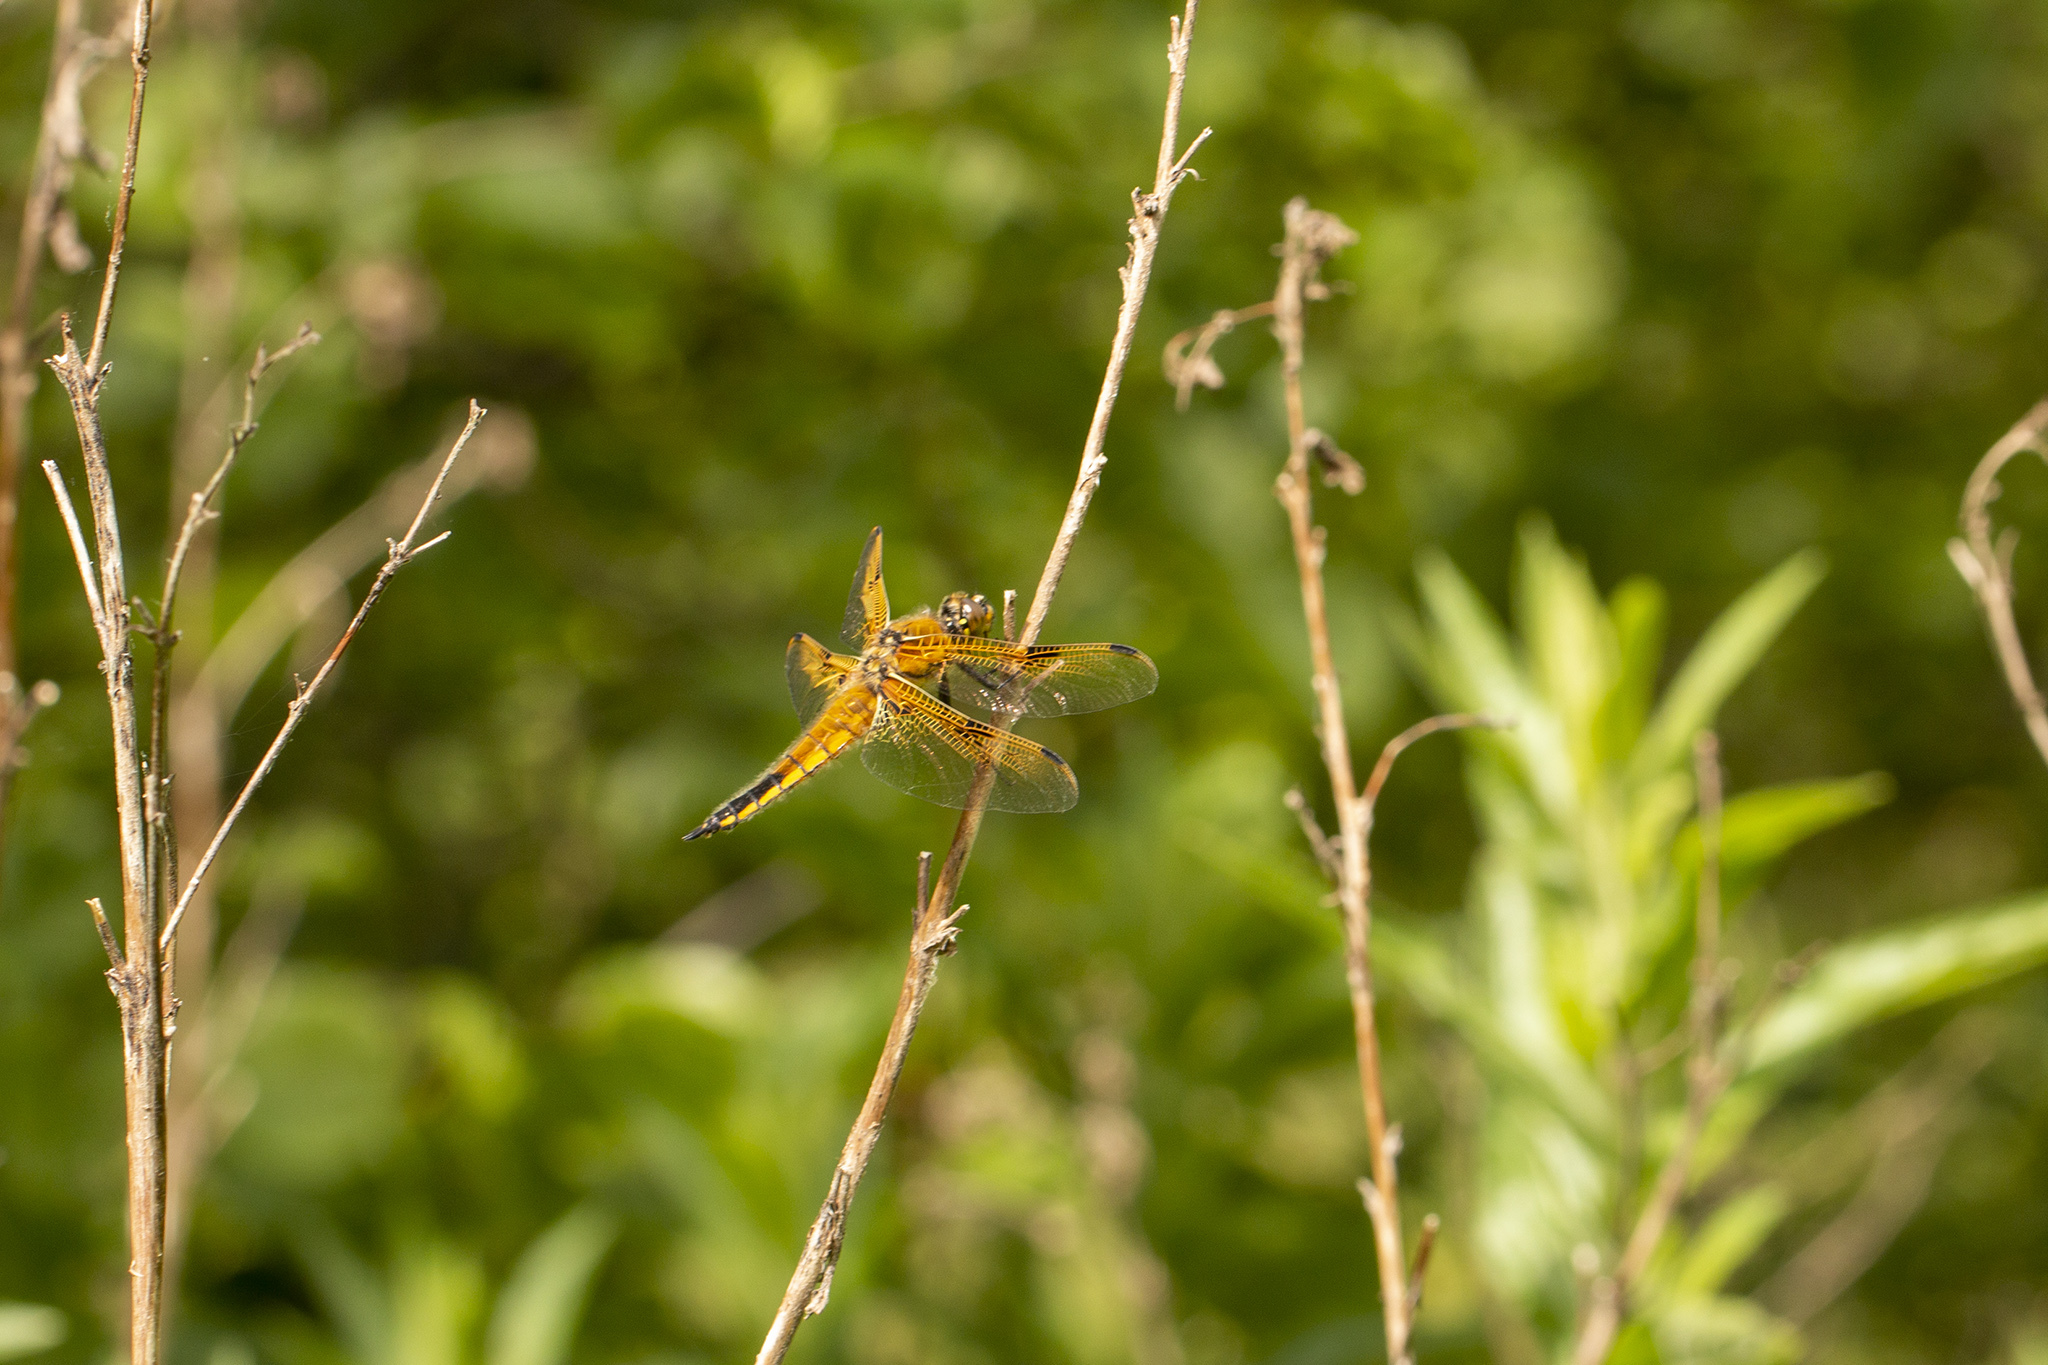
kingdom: Animalia
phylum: Arthropoda
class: Insecta
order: Odonata
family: Libellulidae
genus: Libellula
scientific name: Libellula quadrimaculata
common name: Four-spotted chaser
